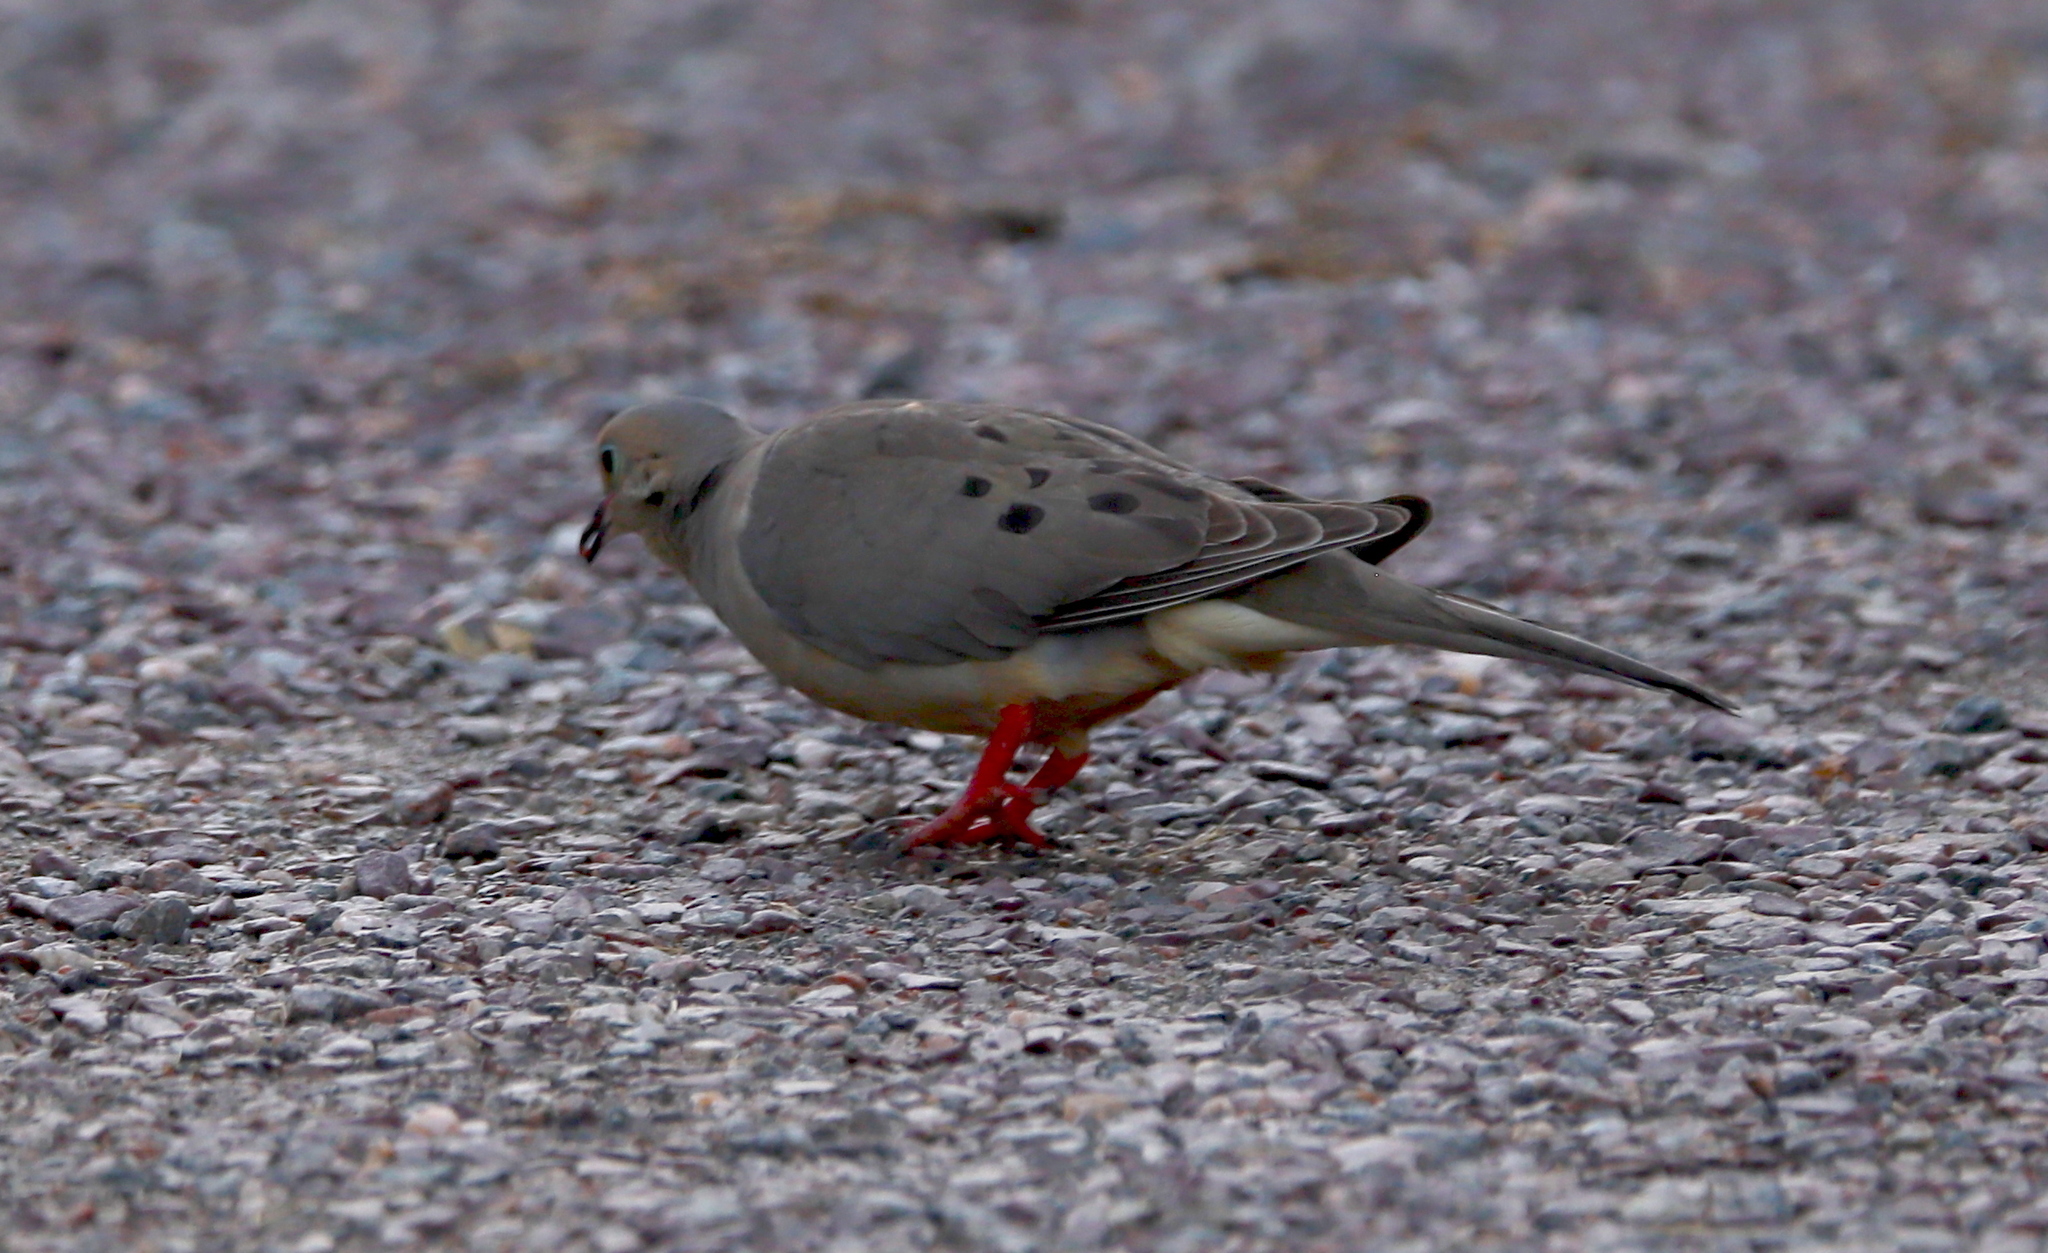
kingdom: Animalia
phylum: Chordata
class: Aves
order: Columbiformes
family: Columbidae
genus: Zenaida
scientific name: Zenaida macroura
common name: Mourning dove
